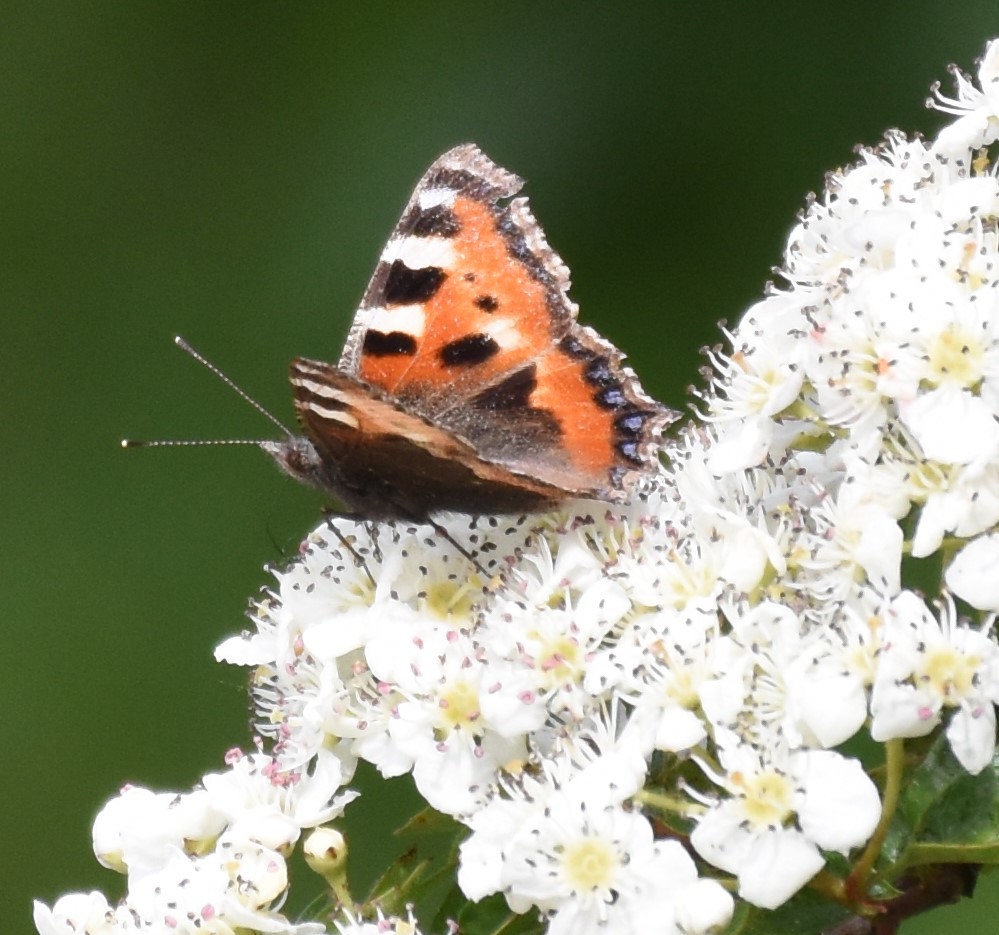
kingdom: Animalia
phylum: Arthropoda
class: Insecta
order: Lepidoptera
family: Nymphalidae
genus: Aglais
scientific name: Aglais urticae
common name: Small tortoiseshell
